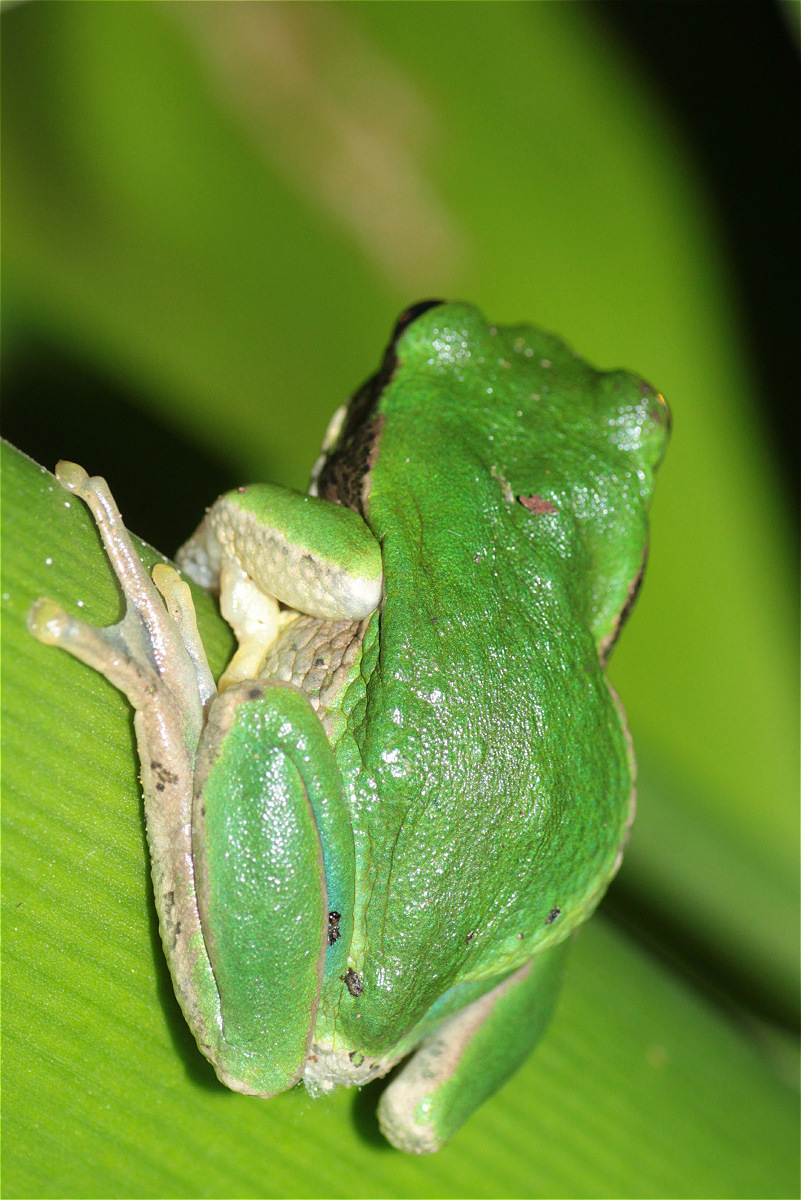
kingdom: Animalia
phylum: Chordata
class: Amphibia
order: Anura
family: Hemiphractidae
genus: Gastrotheca
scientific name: Gastrotheca cuencana
